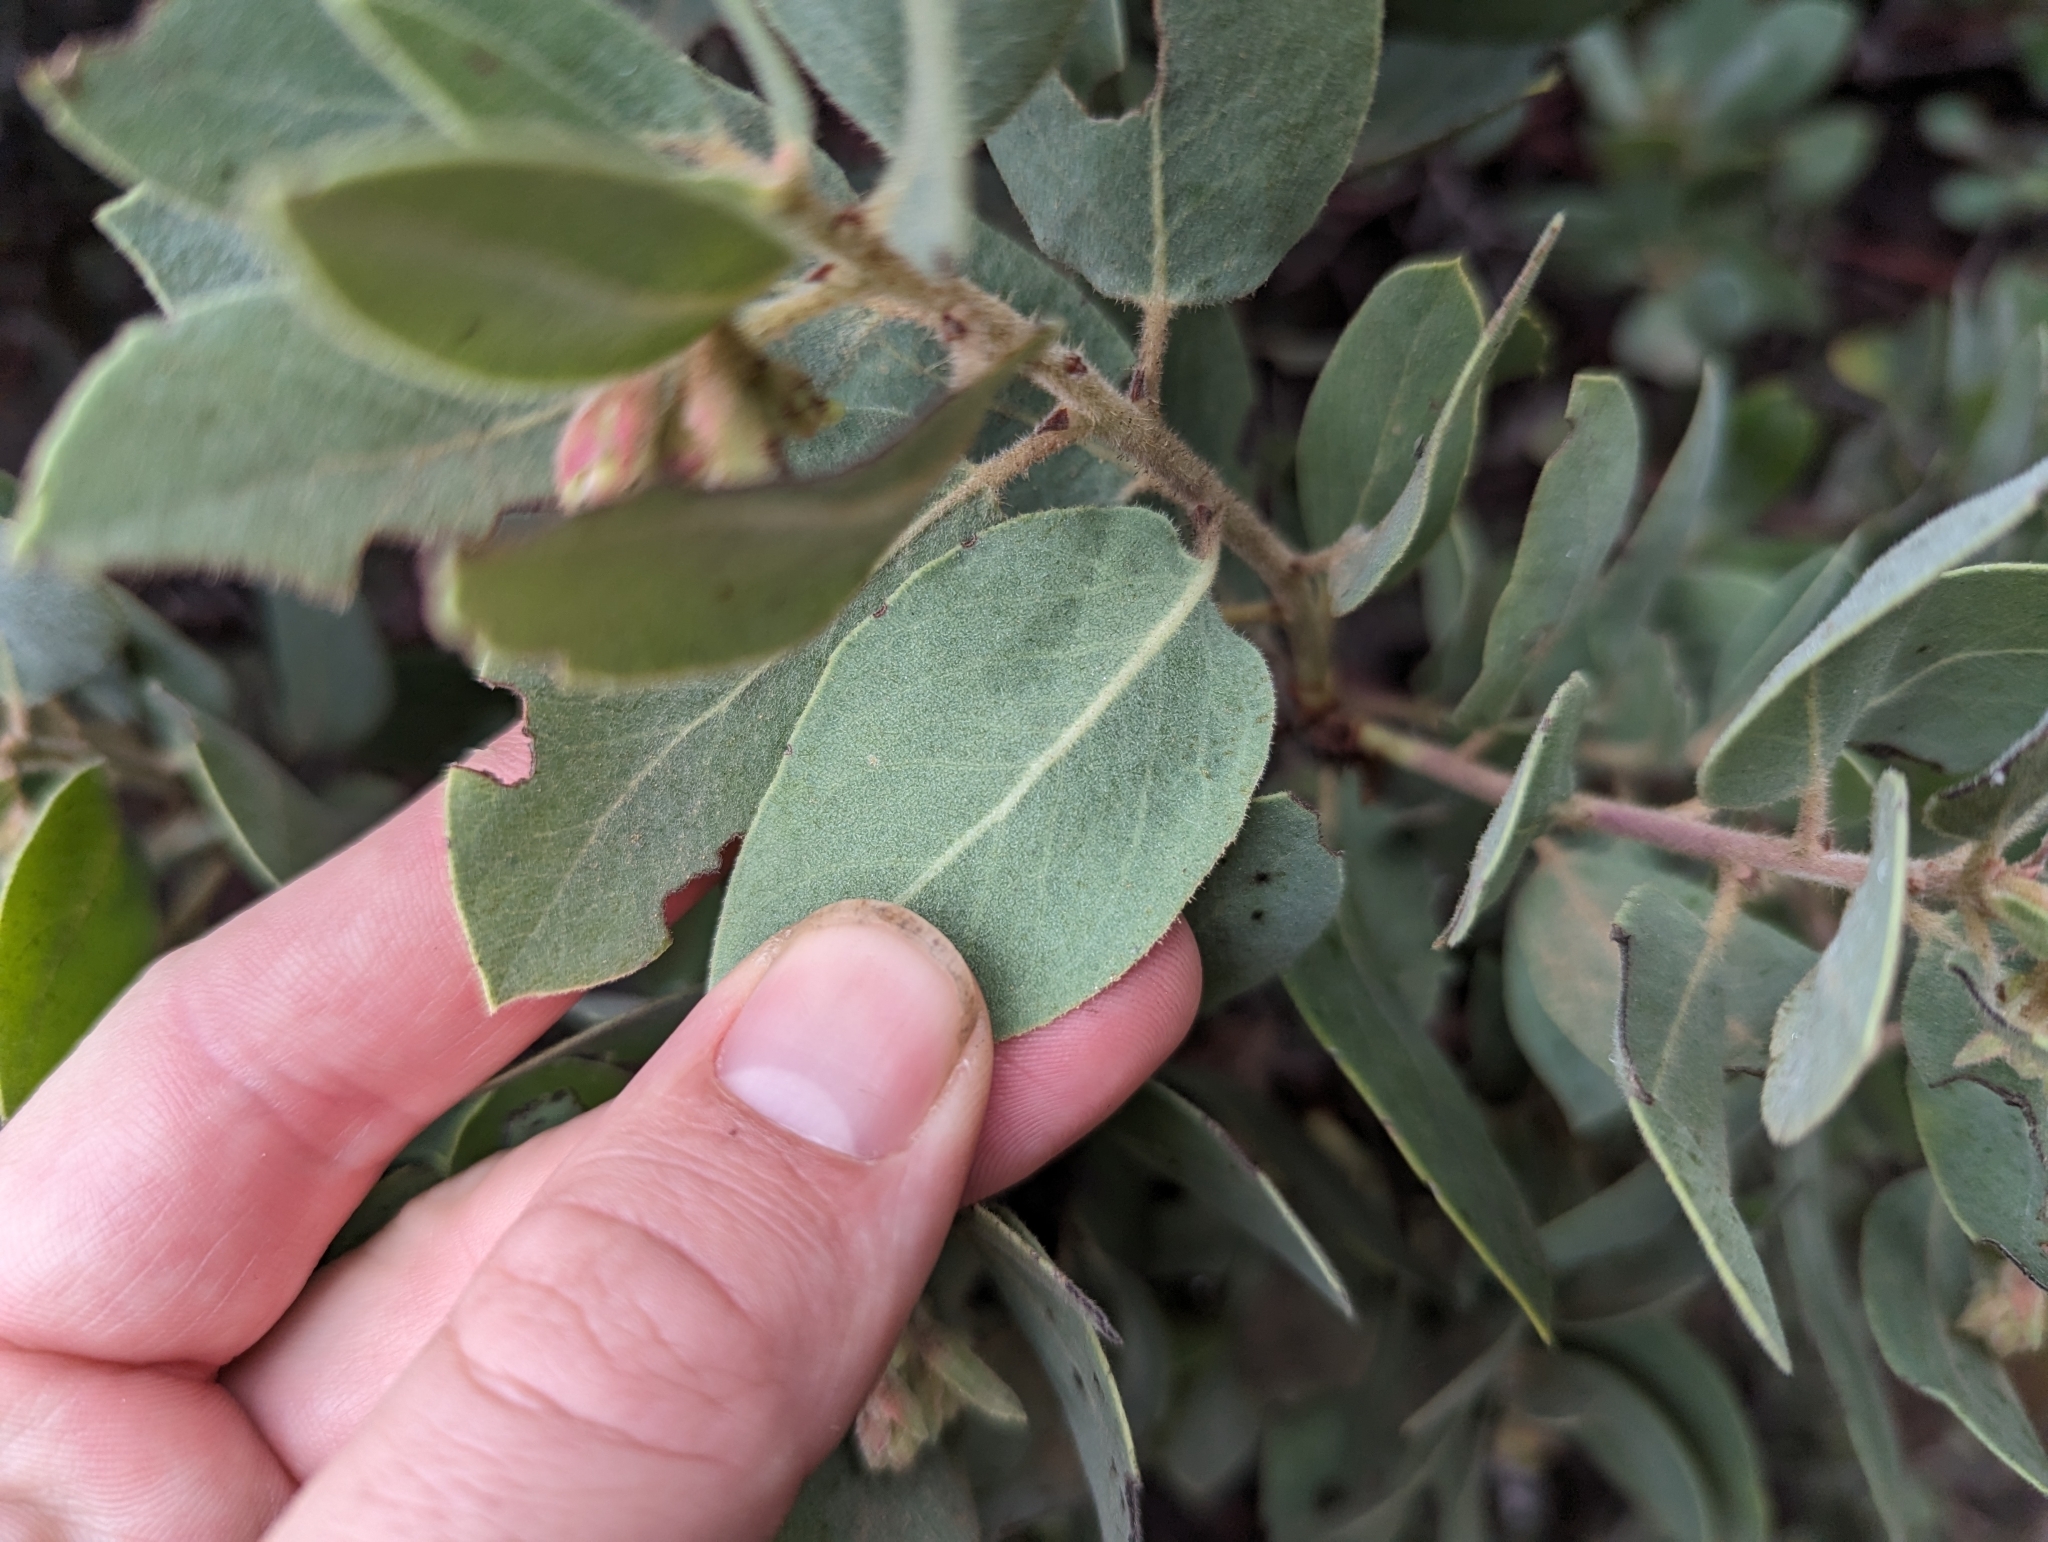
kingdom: Plantae
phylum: Tracheophyta
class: Magnoliopsida
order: Ericales
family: Ericaceae
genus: Arctostaphylos
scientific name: Arctostaphylos glandulosa
